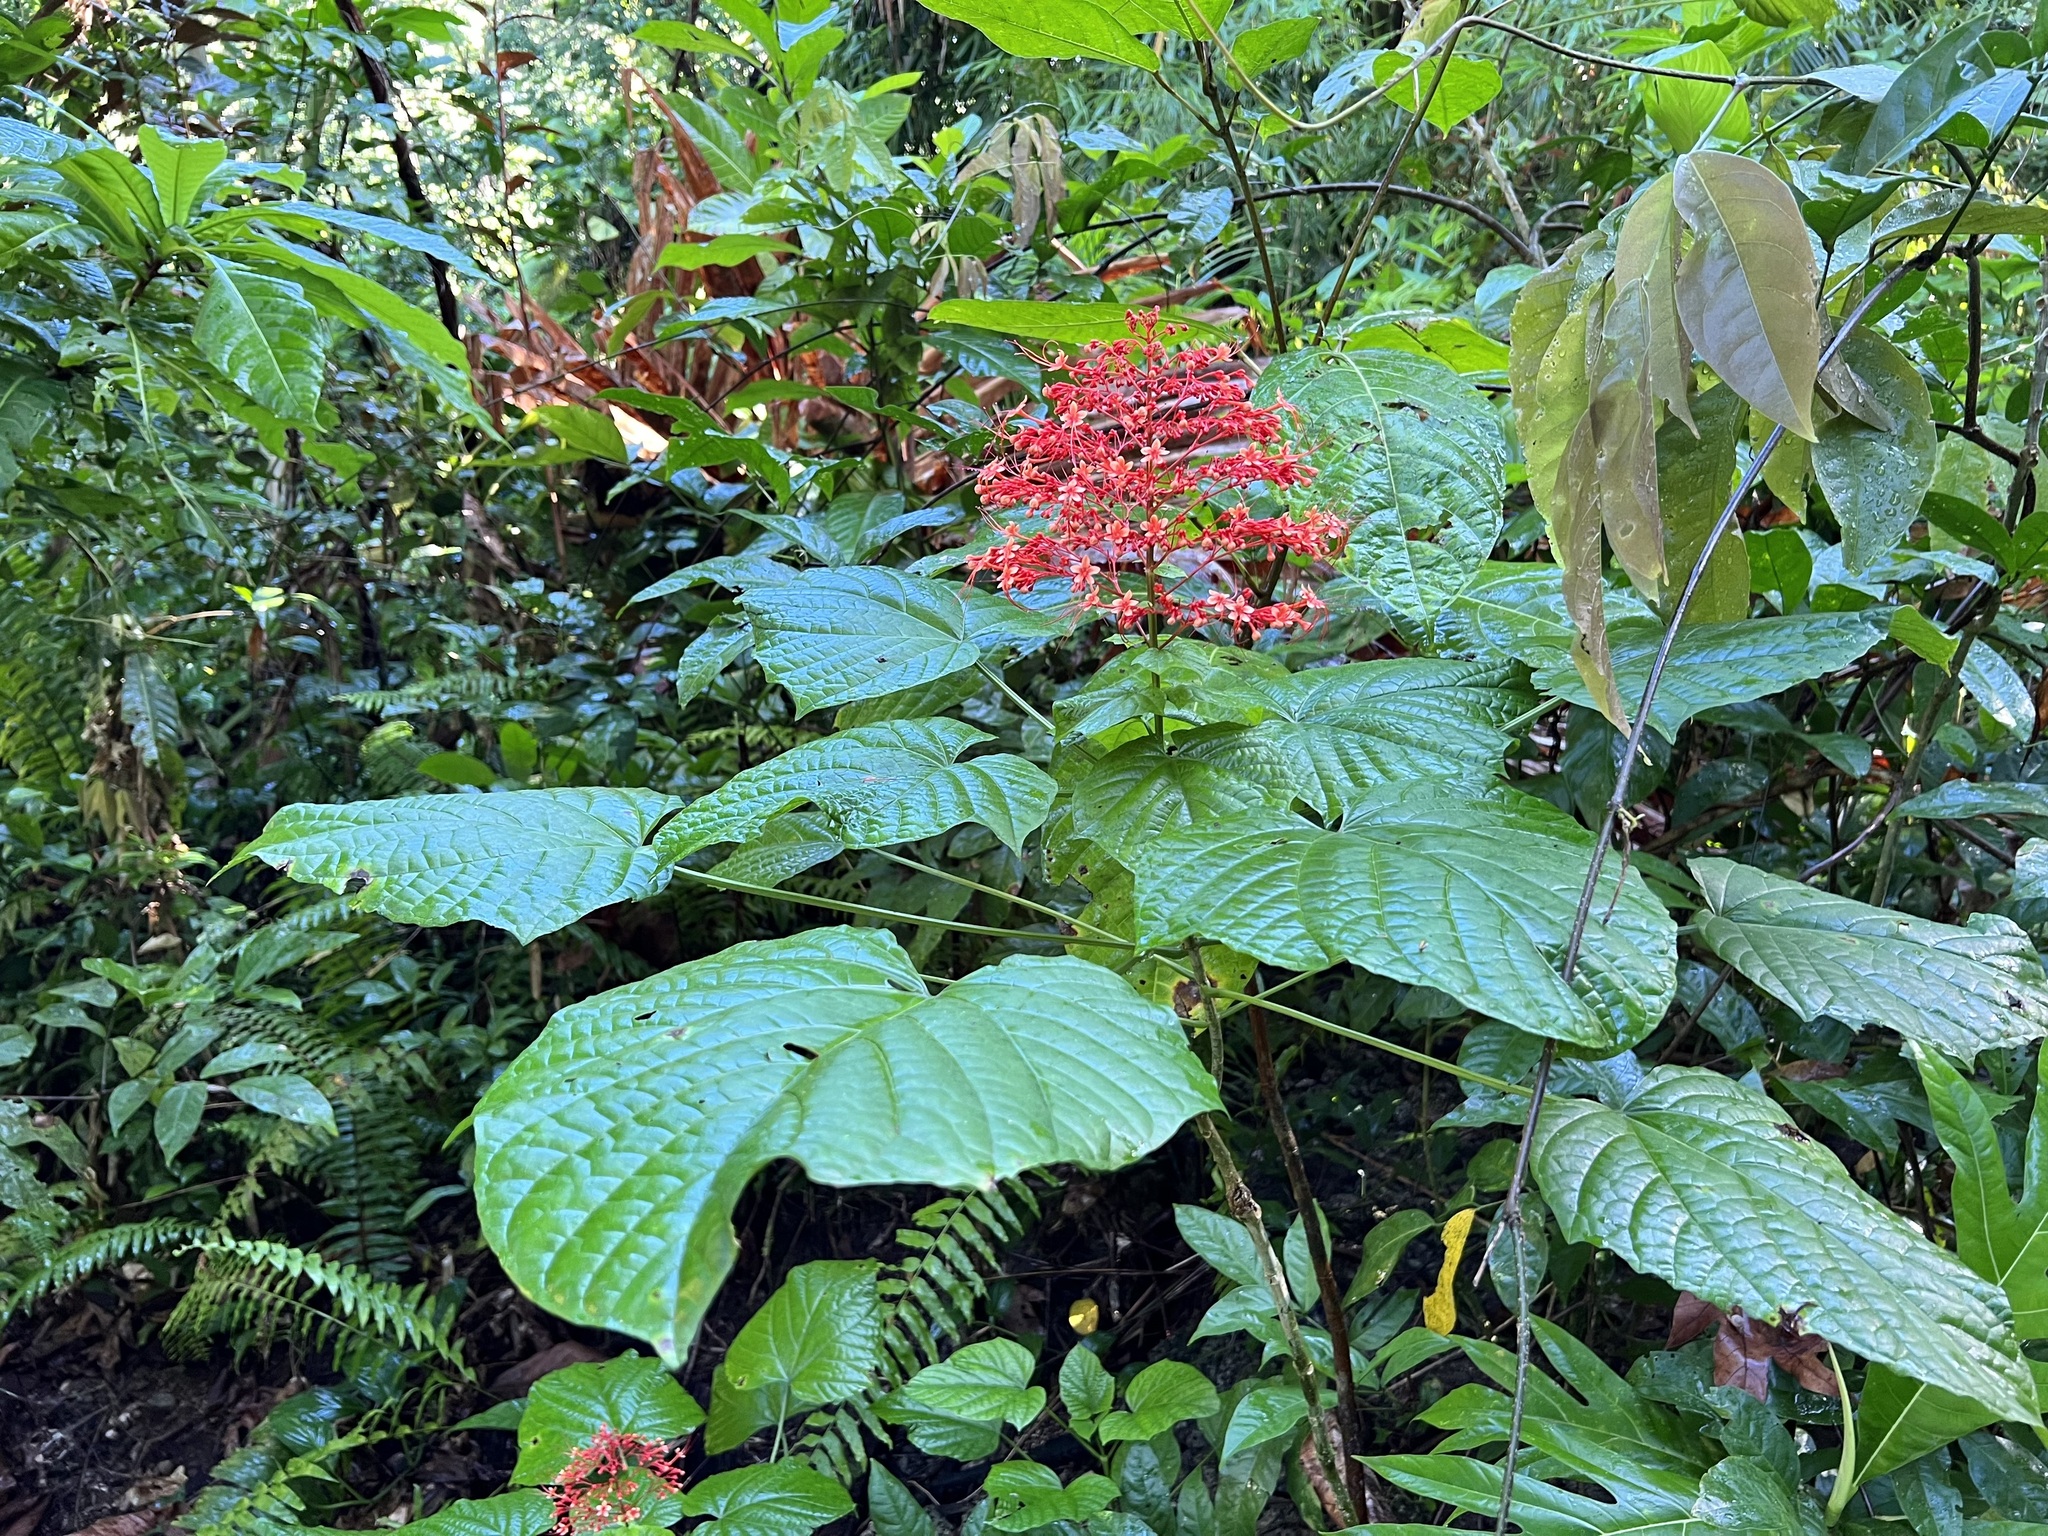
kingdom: Plantae
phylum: Tracheophyta
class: Magnoliopsida
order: Lamiales
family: Lamiaceae
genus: Clerodendrum
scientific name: Clerodendrum paniculatum
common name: Pagoda-flower
